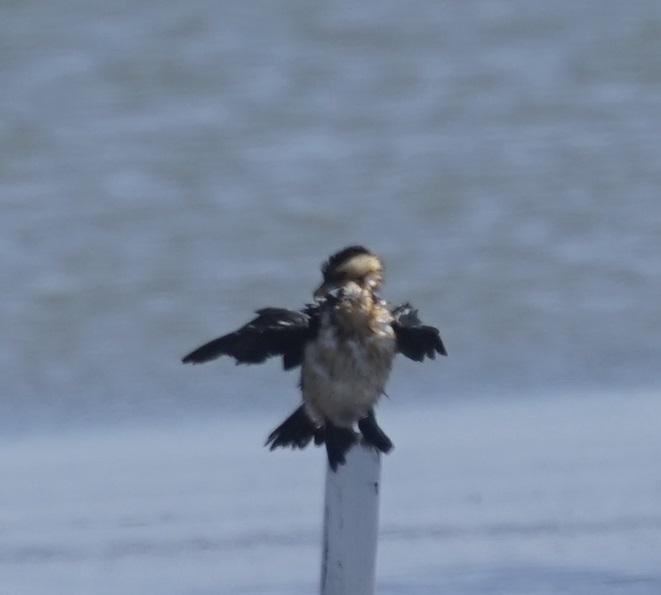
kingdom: Animalia
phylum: Chordata
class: Aves
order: Suliformes
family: Phalacrocoracidae
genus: Microcarbo
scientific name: Microcarbo melanoleucos
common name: Little pied cormorant
